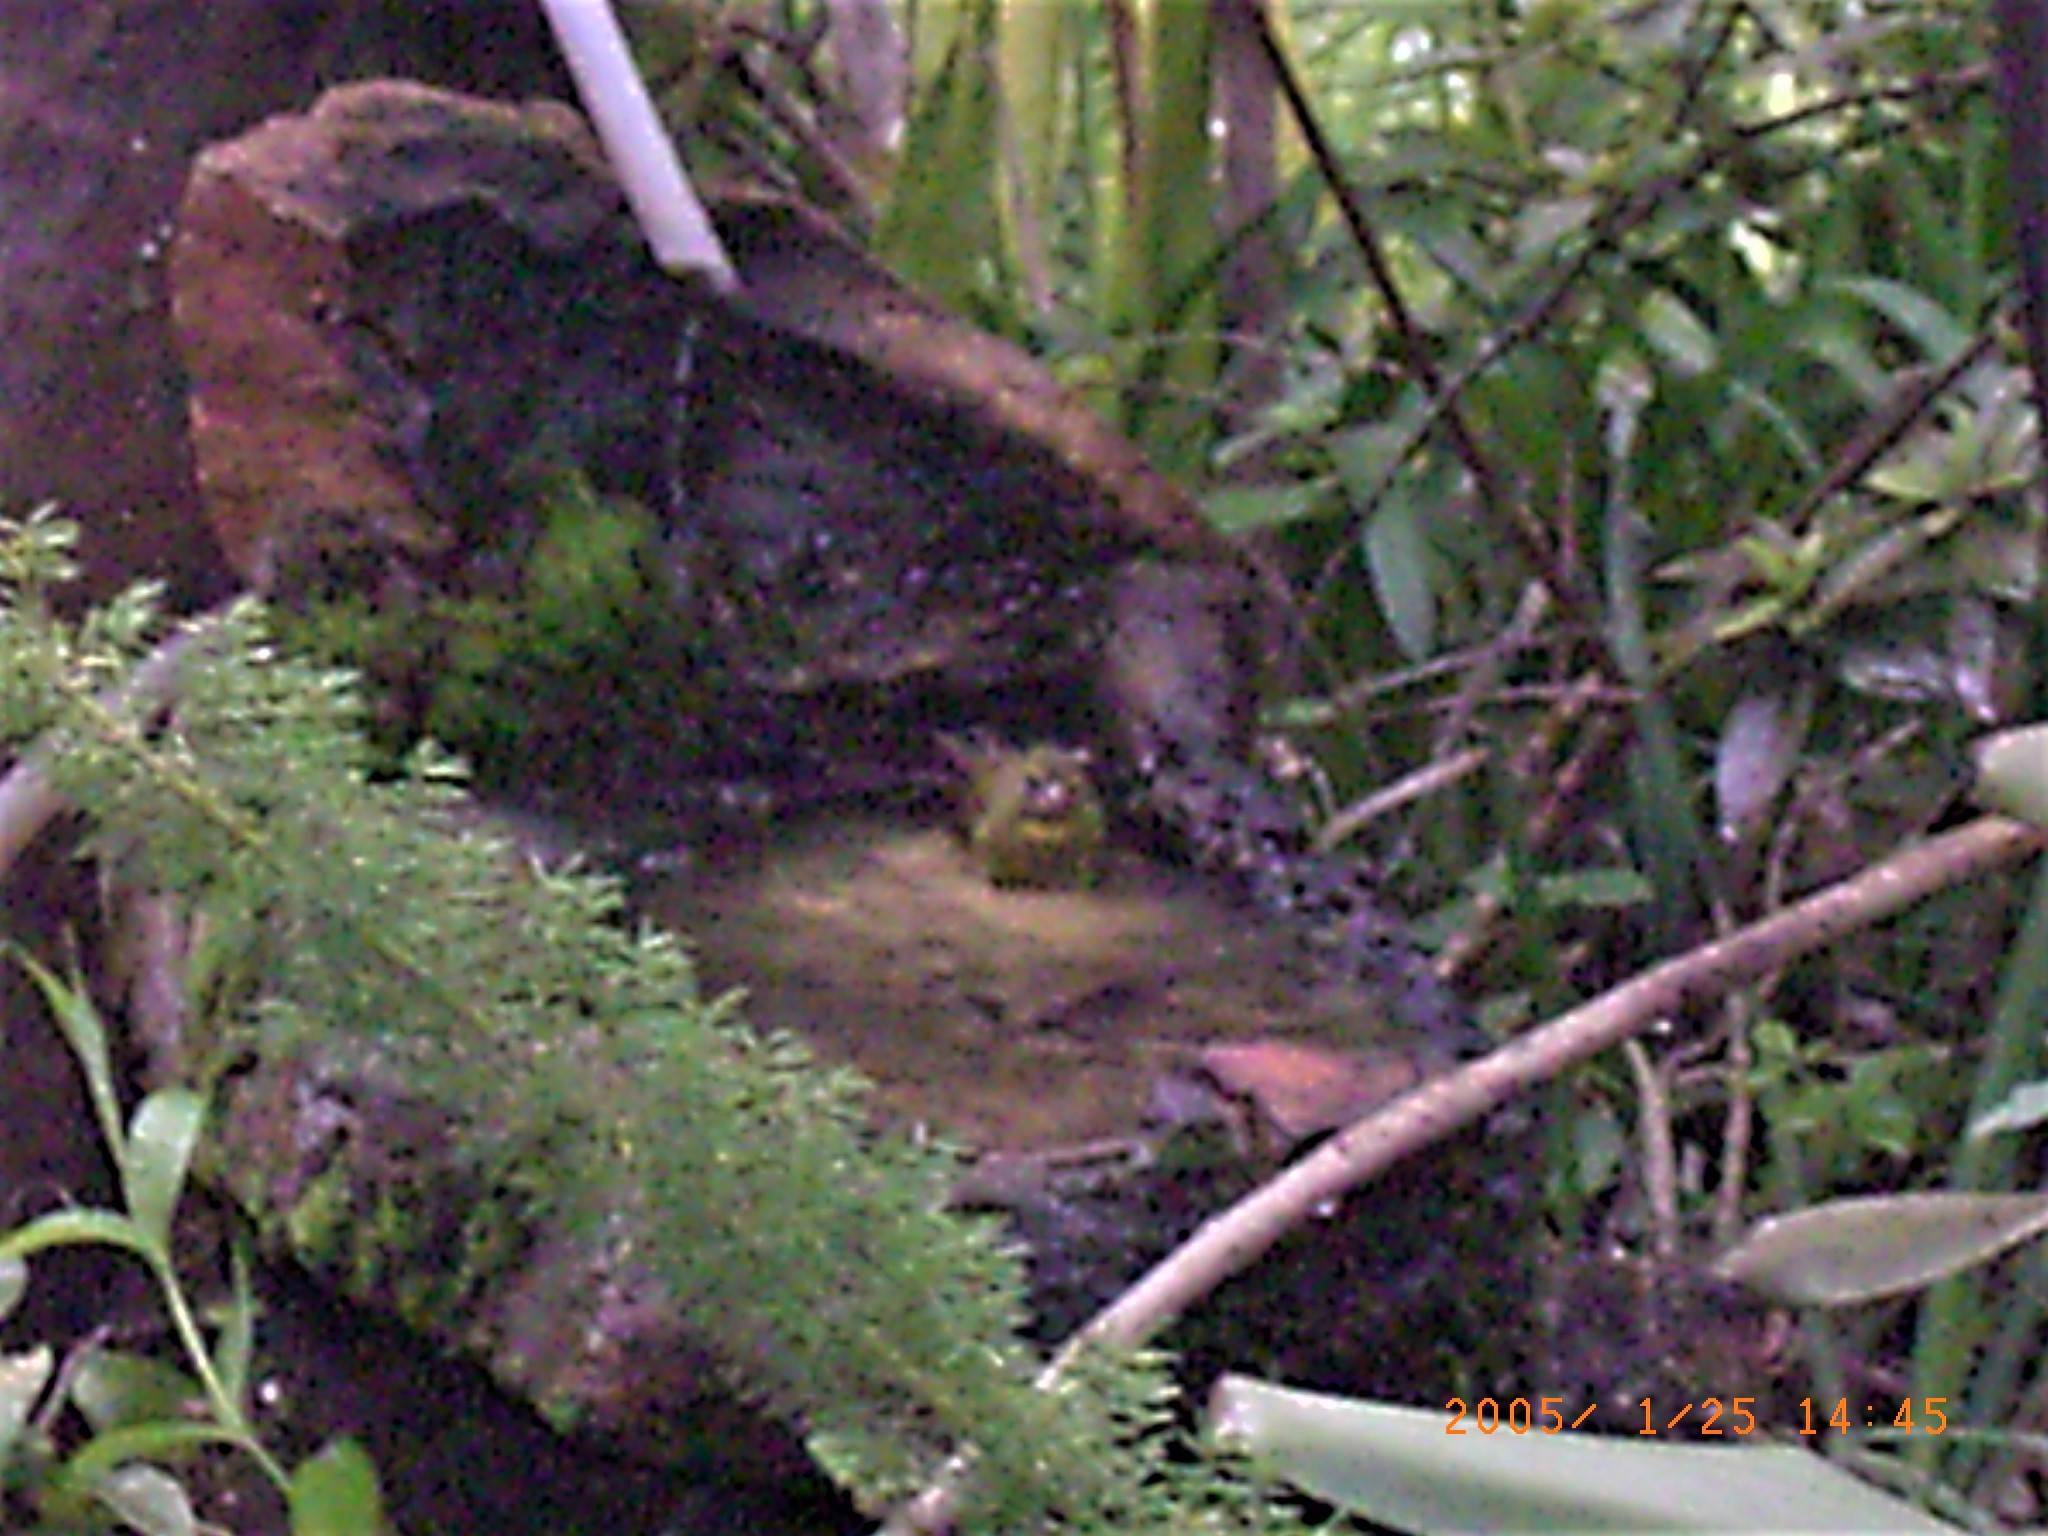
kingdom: Animalia
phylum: Chordata
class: Aves
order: Passeriformes
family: Fringillidae
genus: Crithagra
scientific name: Crithagra scotops
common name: Forest canary
